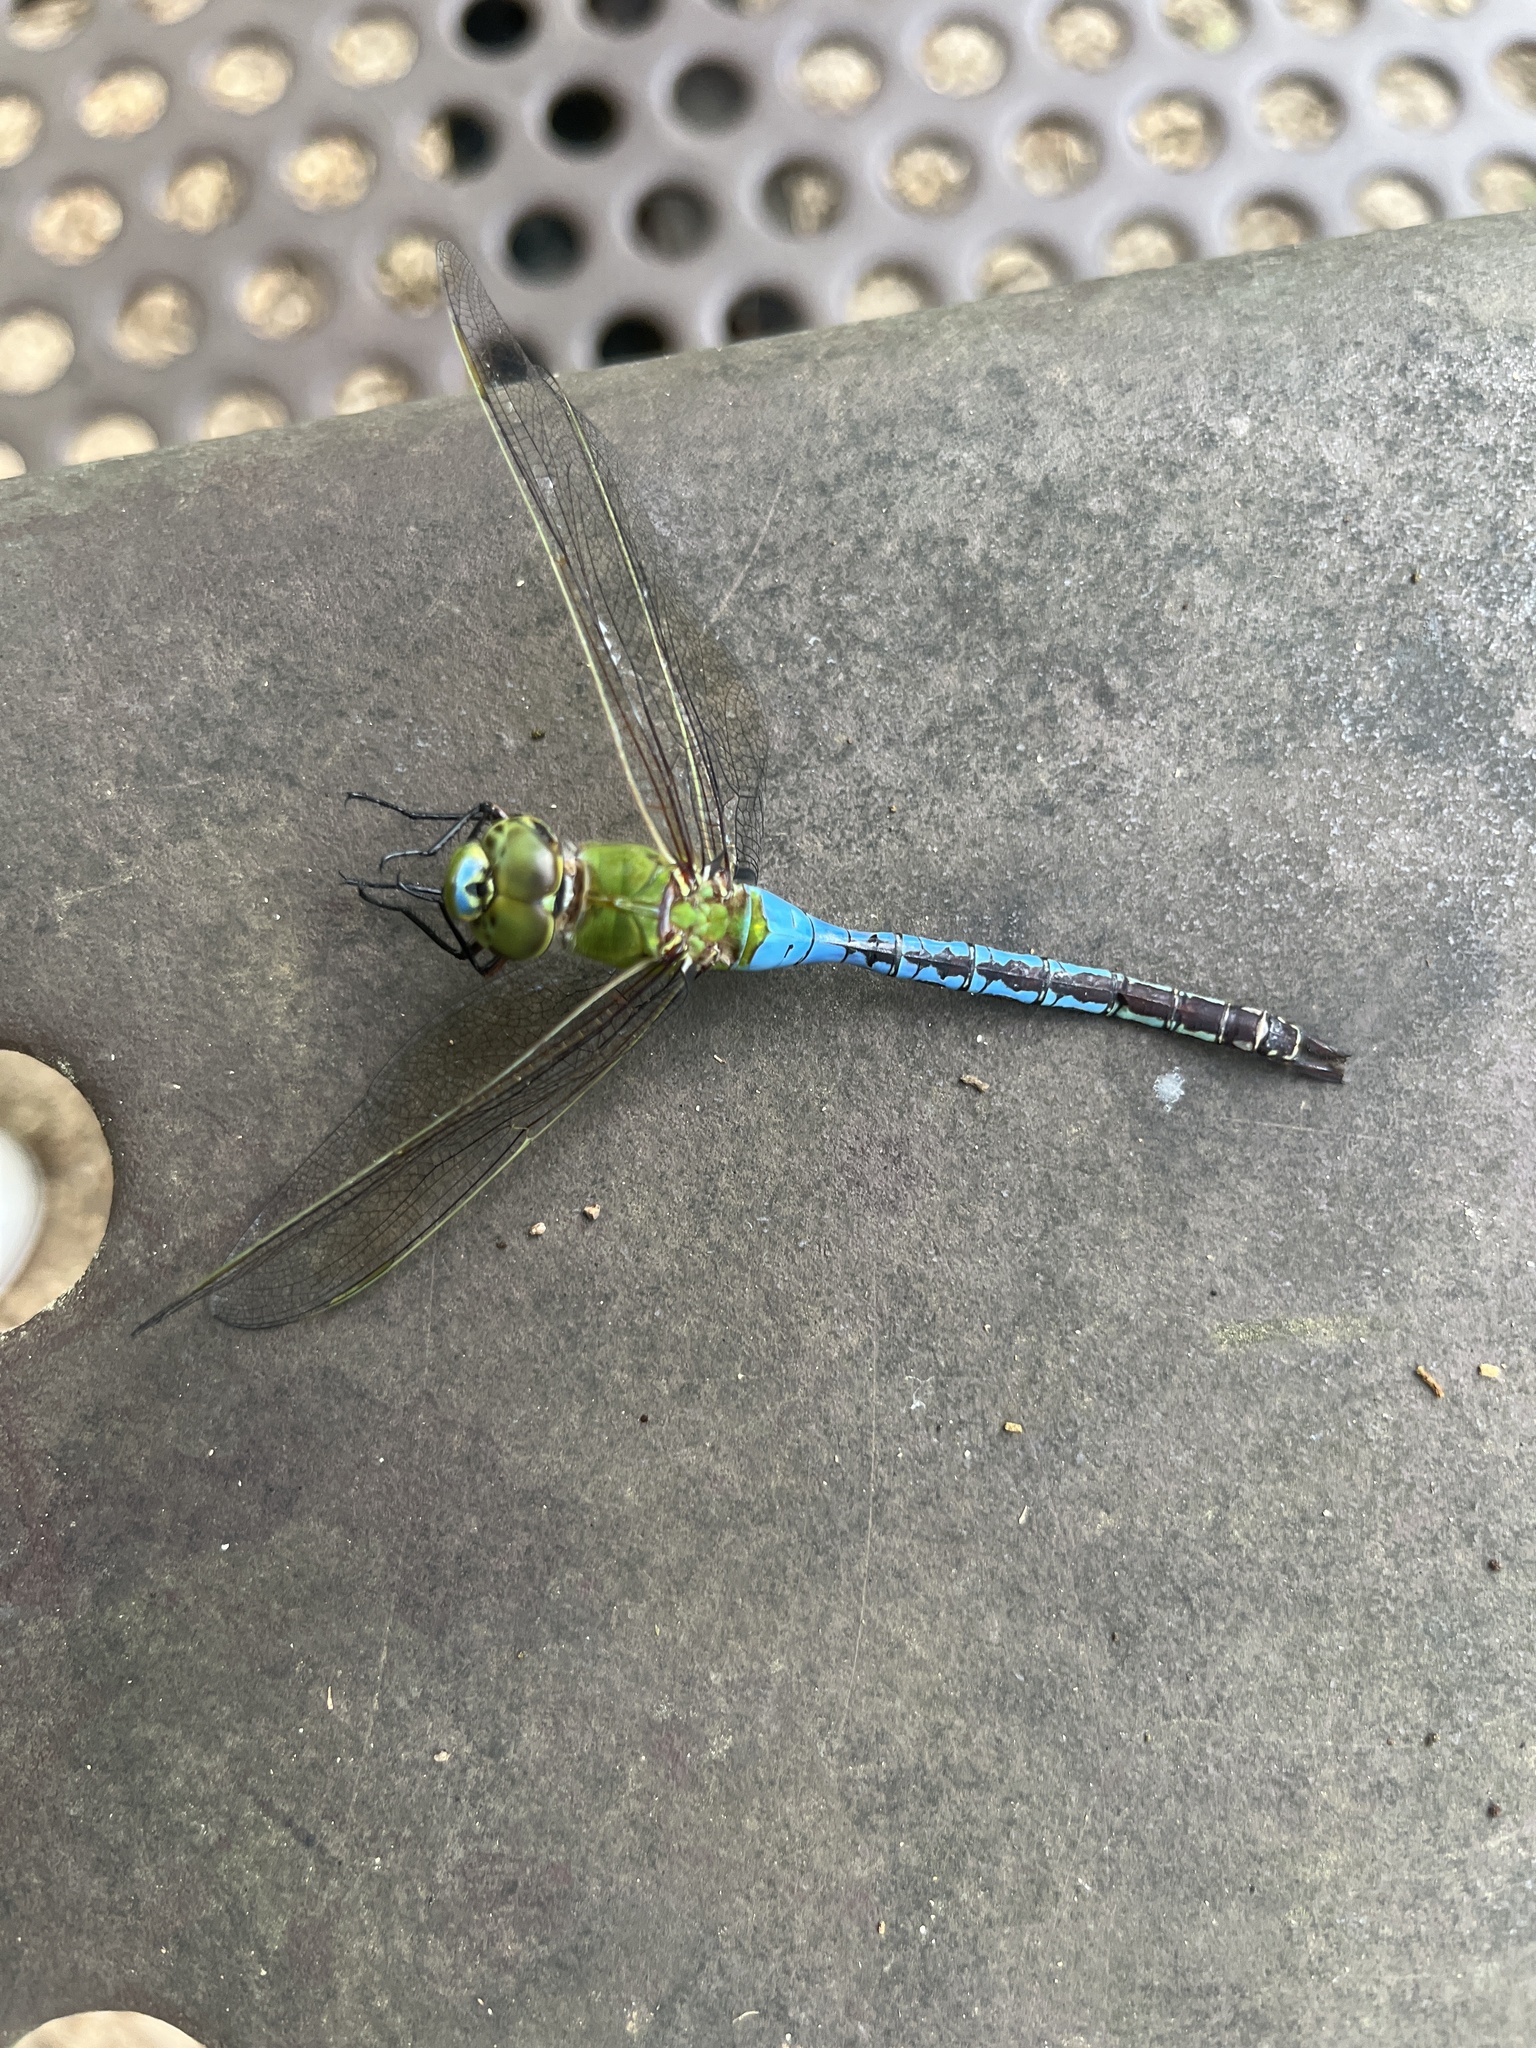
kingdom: Animalia
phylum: Arthropoda
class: Insecta
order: Odonata
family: Aeshnidae
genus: Anax
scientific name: Anax junius
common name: Common green darner
